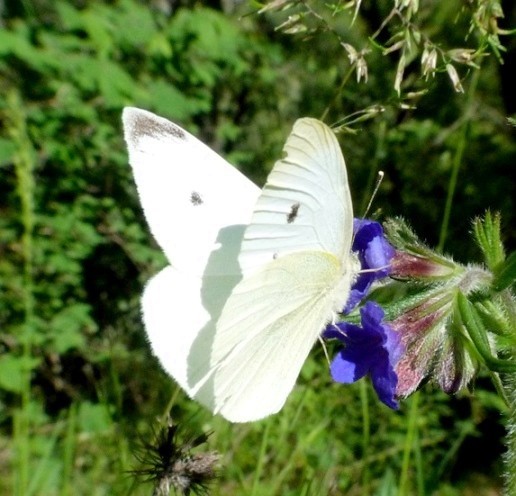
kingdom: Animalia
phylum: Arthropoda
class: Insecta
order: Lepidoptera
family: Pieridae
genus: Pieris
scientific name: Pieris rapae
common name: Small white
